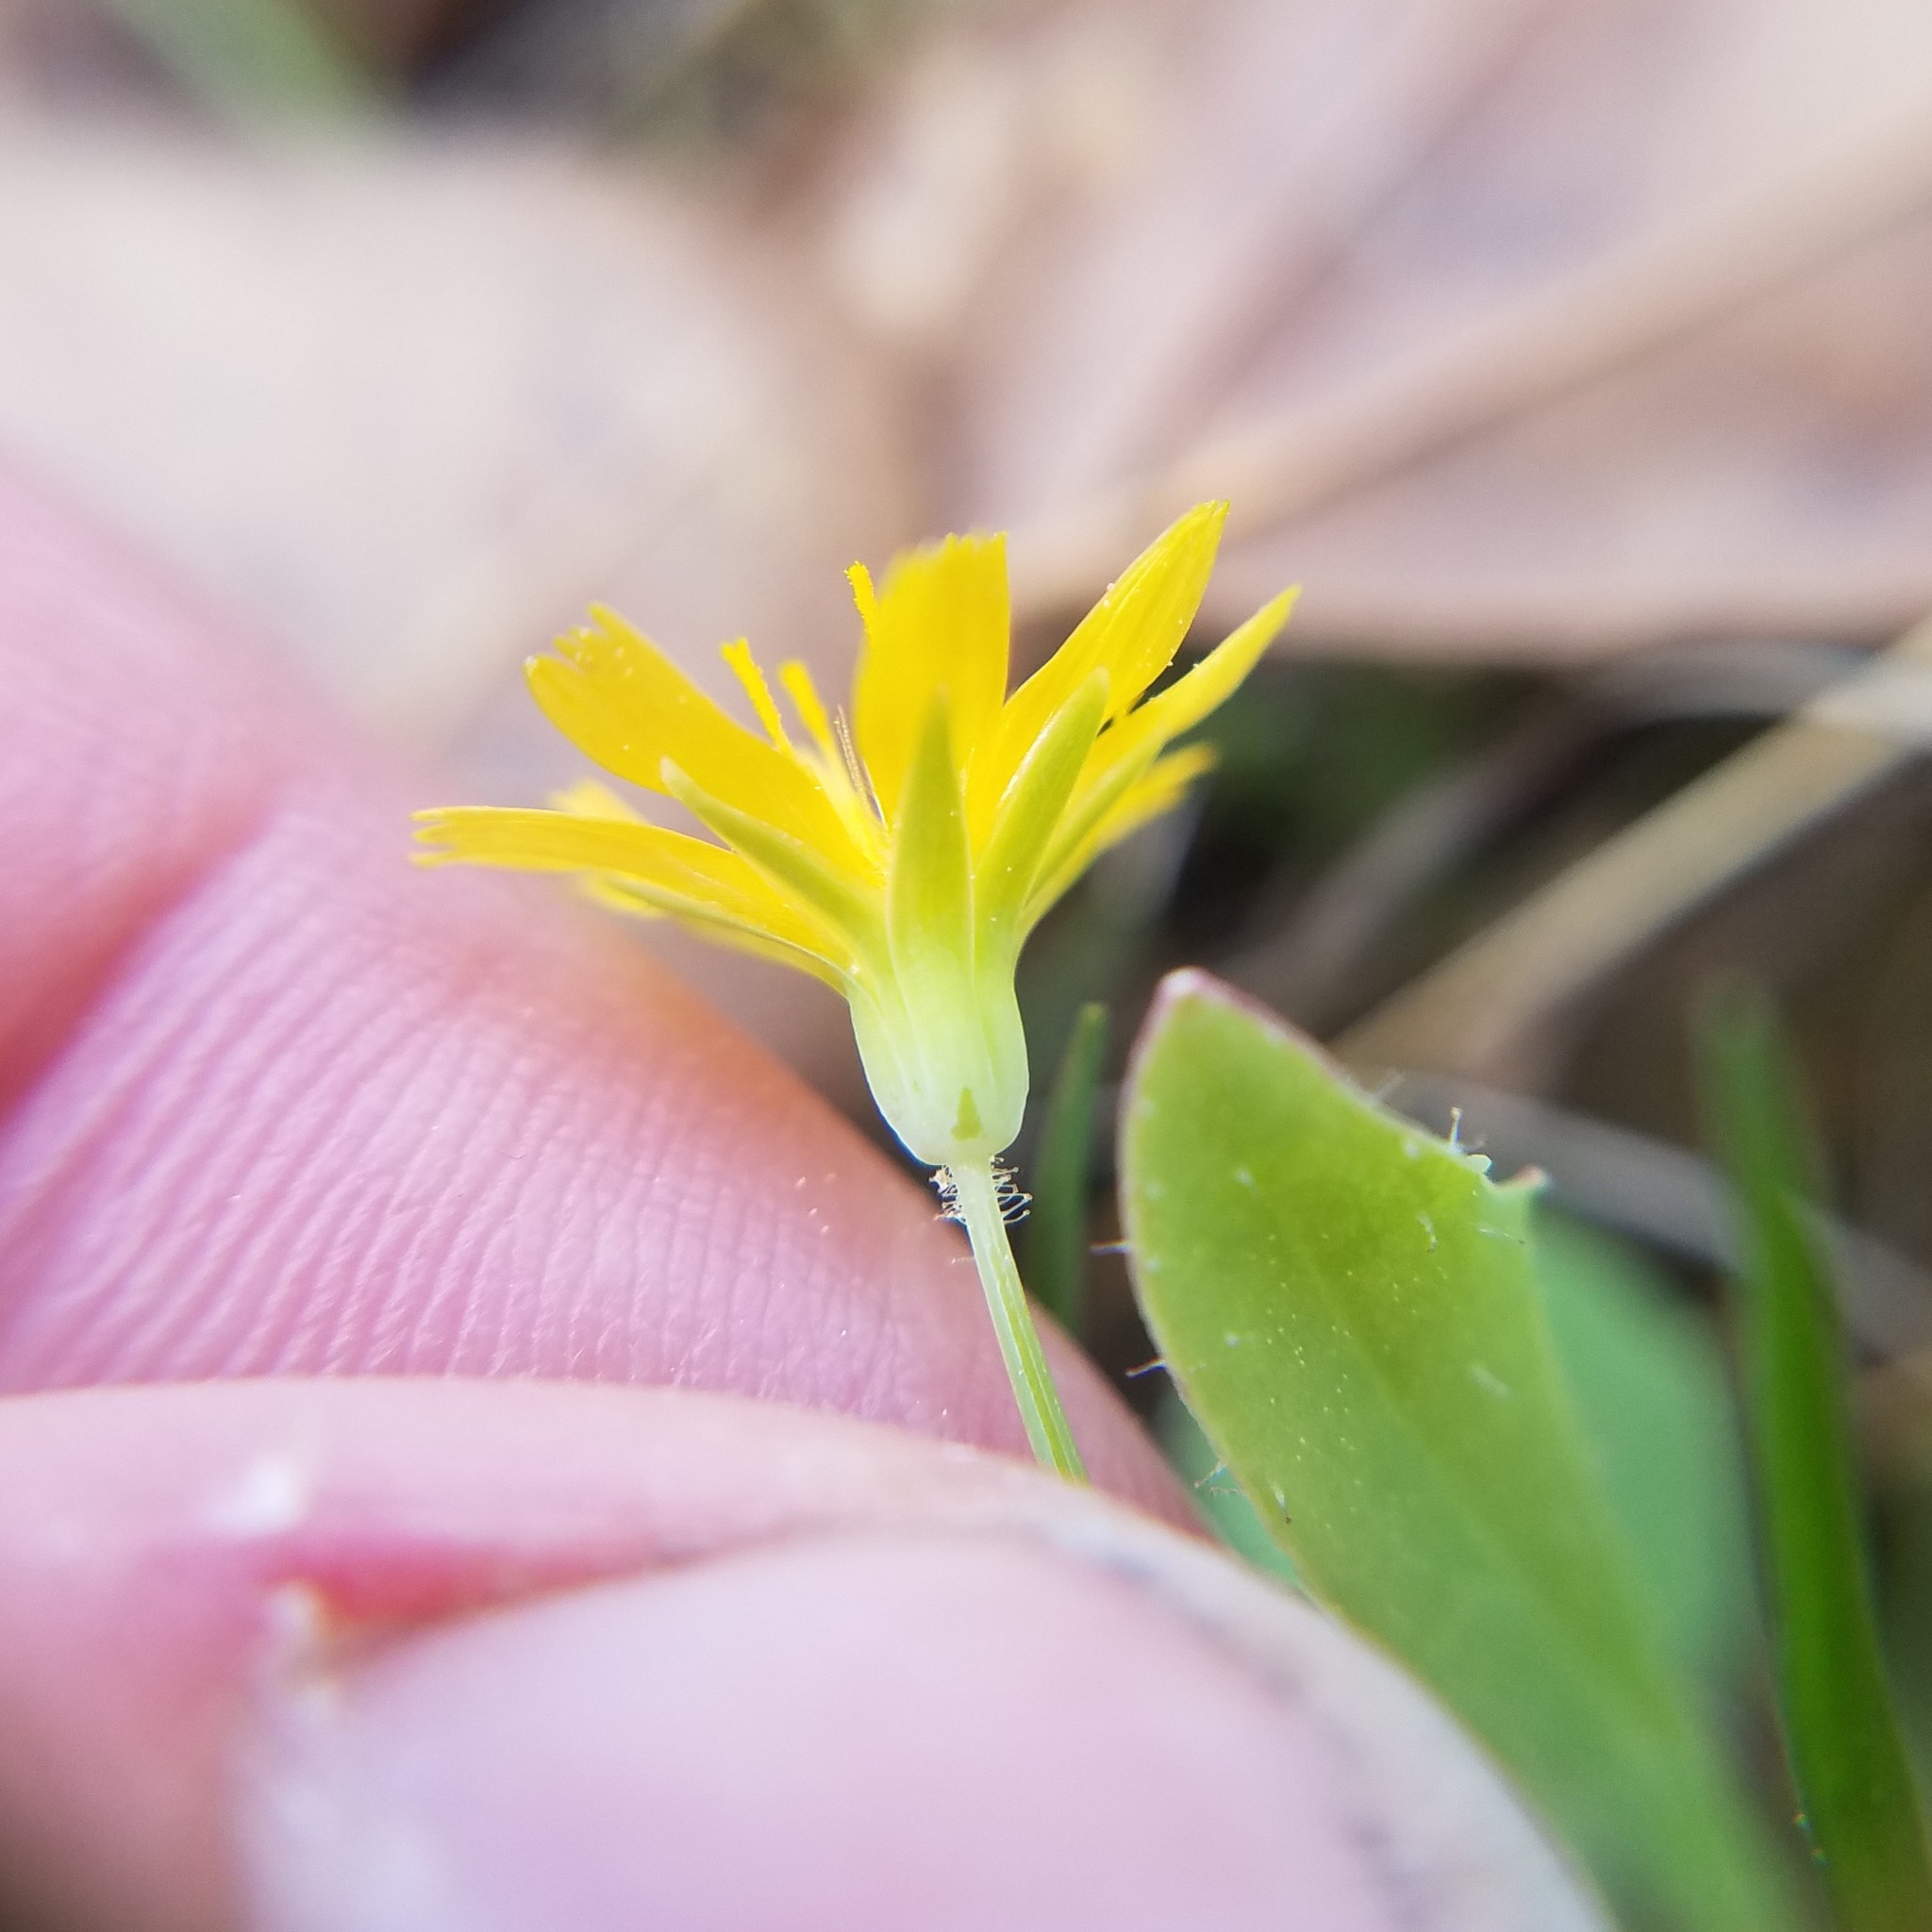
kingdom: Plantae
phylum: Tracheophyta
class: Magnoliopsida
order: Asterales
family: Asteraceae
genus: Krigia
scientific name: Krigia virginica
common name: Virginia dwarf-dandelion
